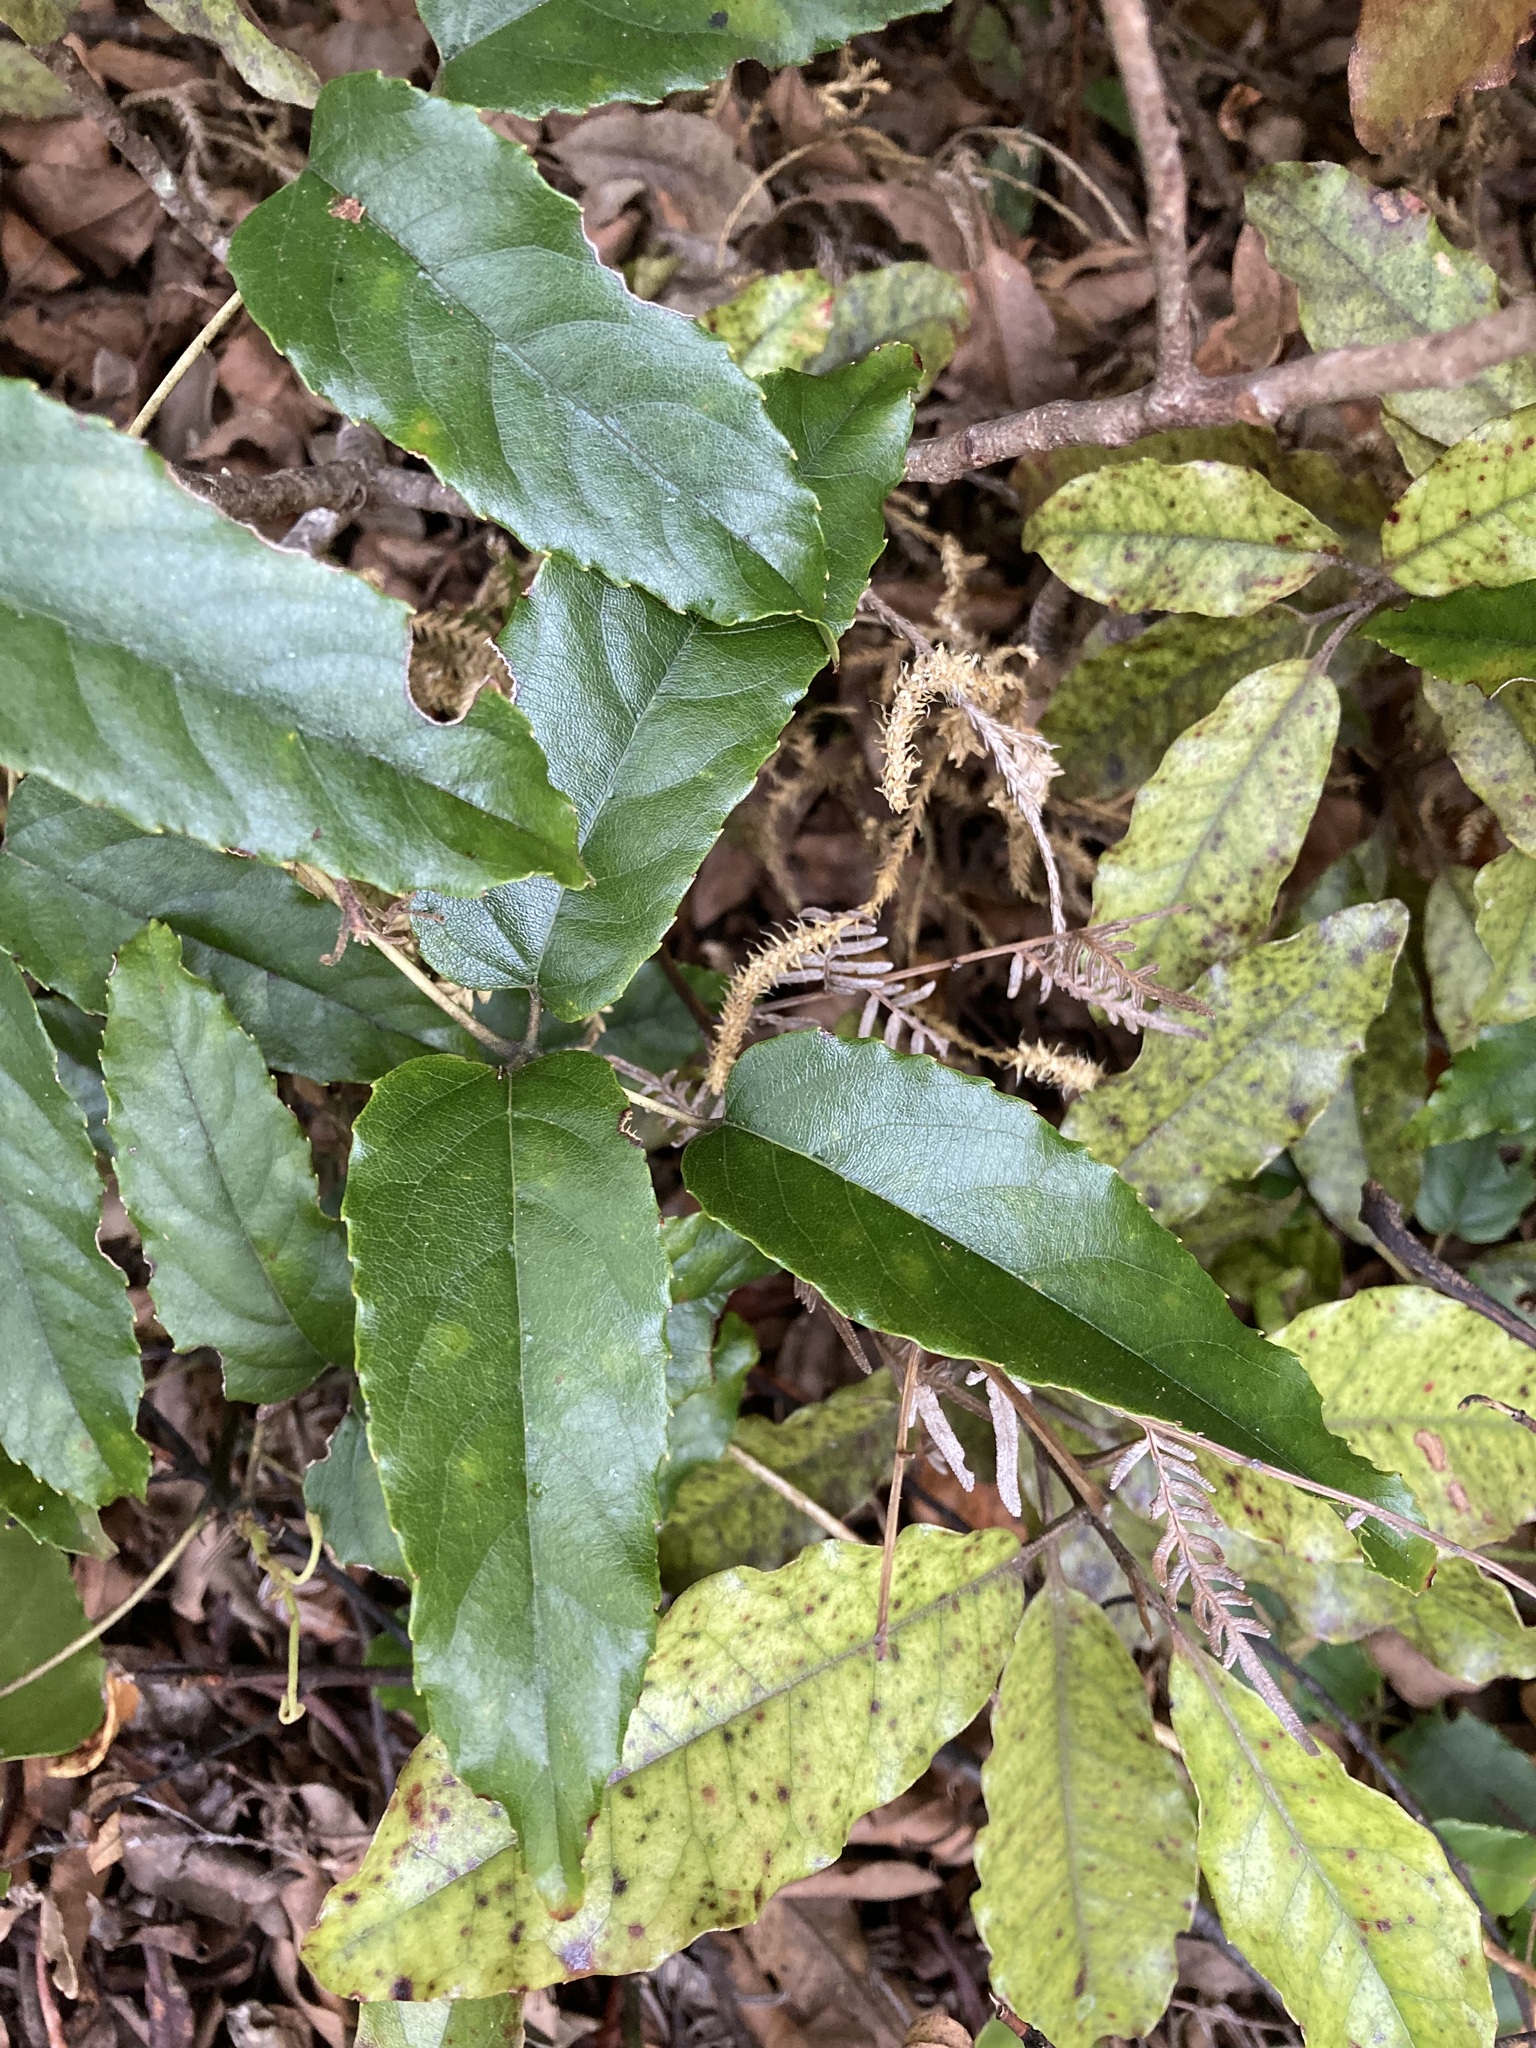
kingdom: Plantae
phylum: Tracheophyta
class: Magnoliopsida
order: Rosales
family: Rosaceae
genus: Rubus
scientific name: Rubus cissoides
